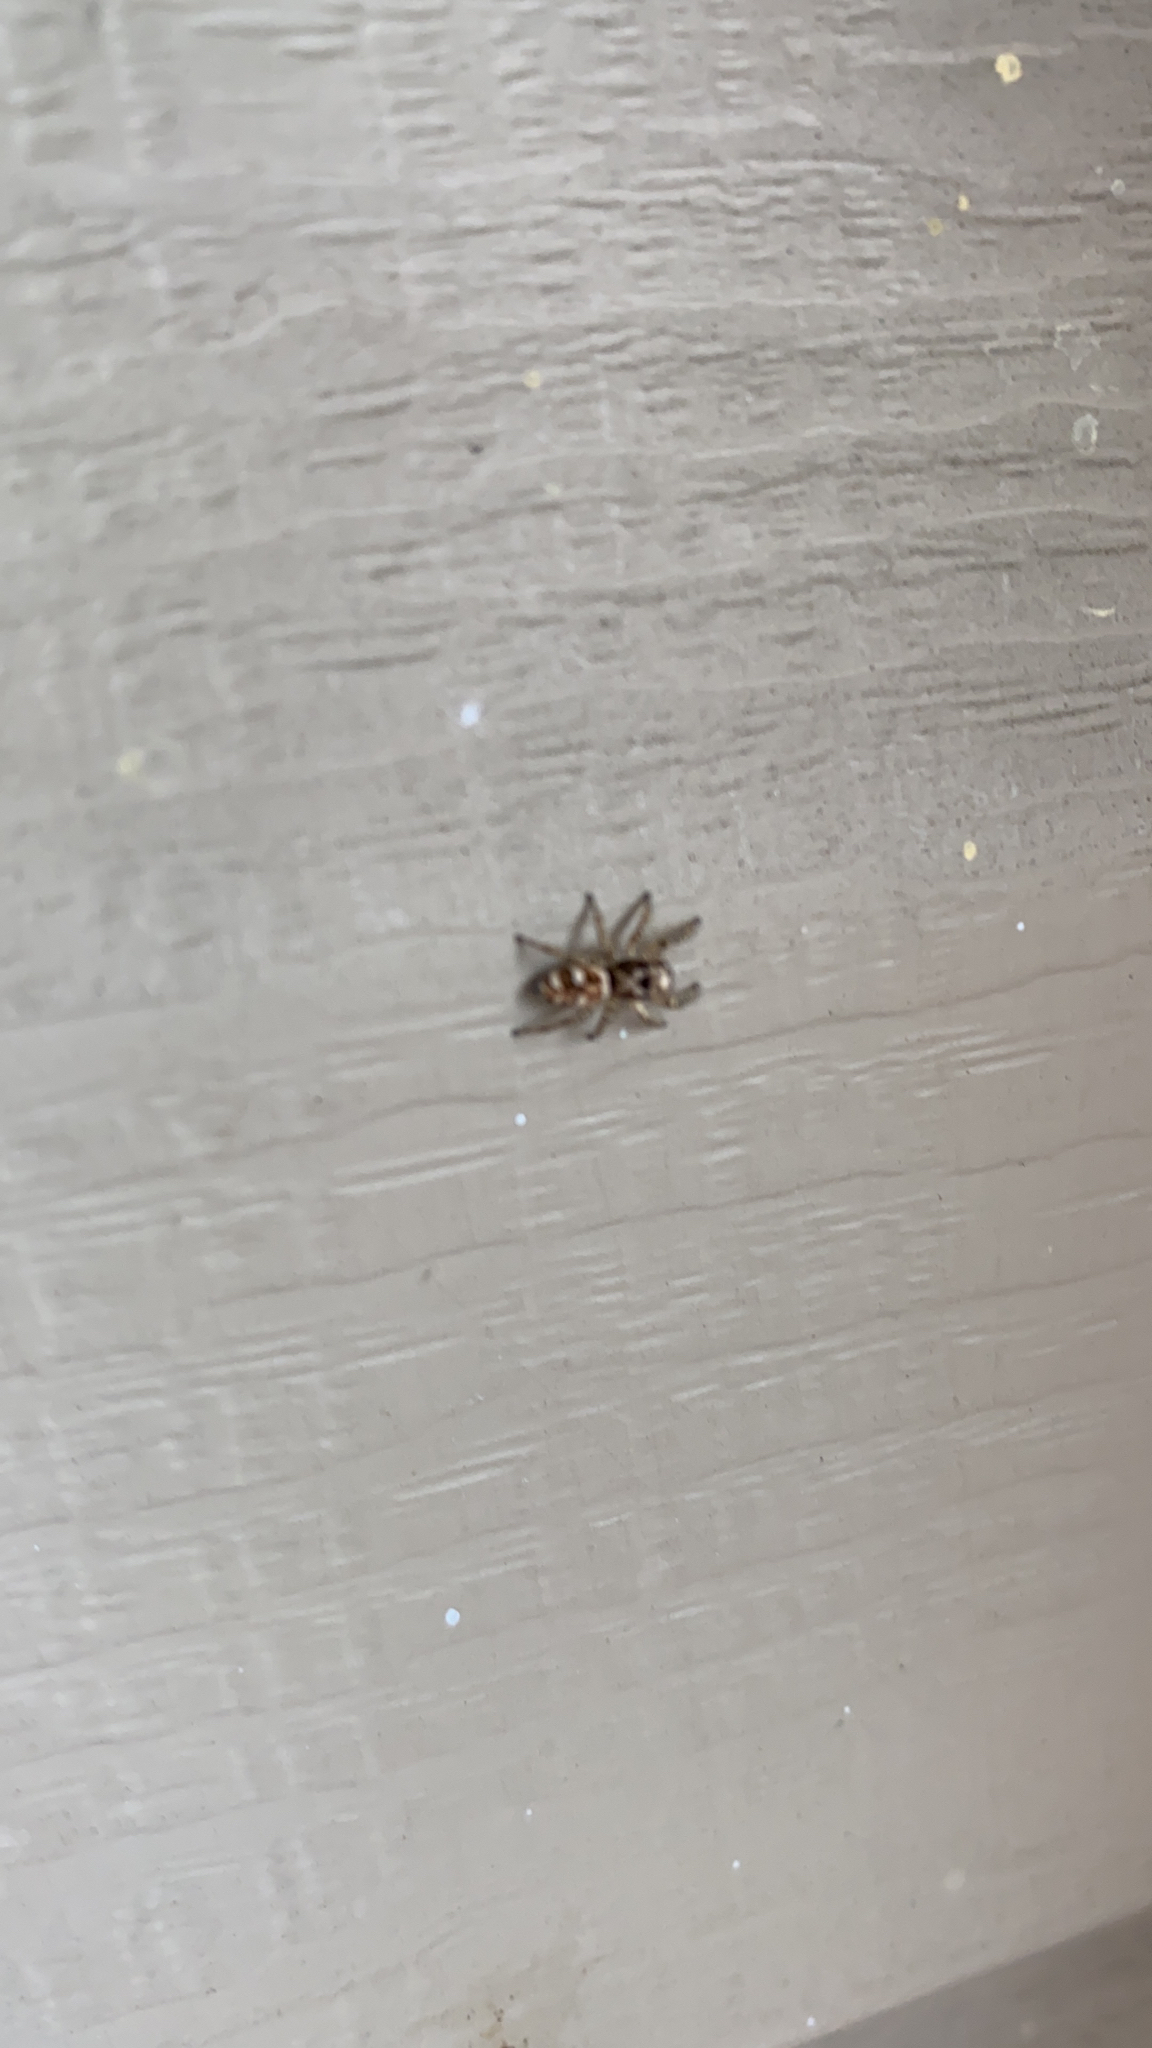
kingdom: Animalia
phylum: Arthropoda
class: Arachnida
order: Araneae
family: Salticidae
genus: Salticus
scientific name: Salticus scenicus
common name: Zebra jumper
